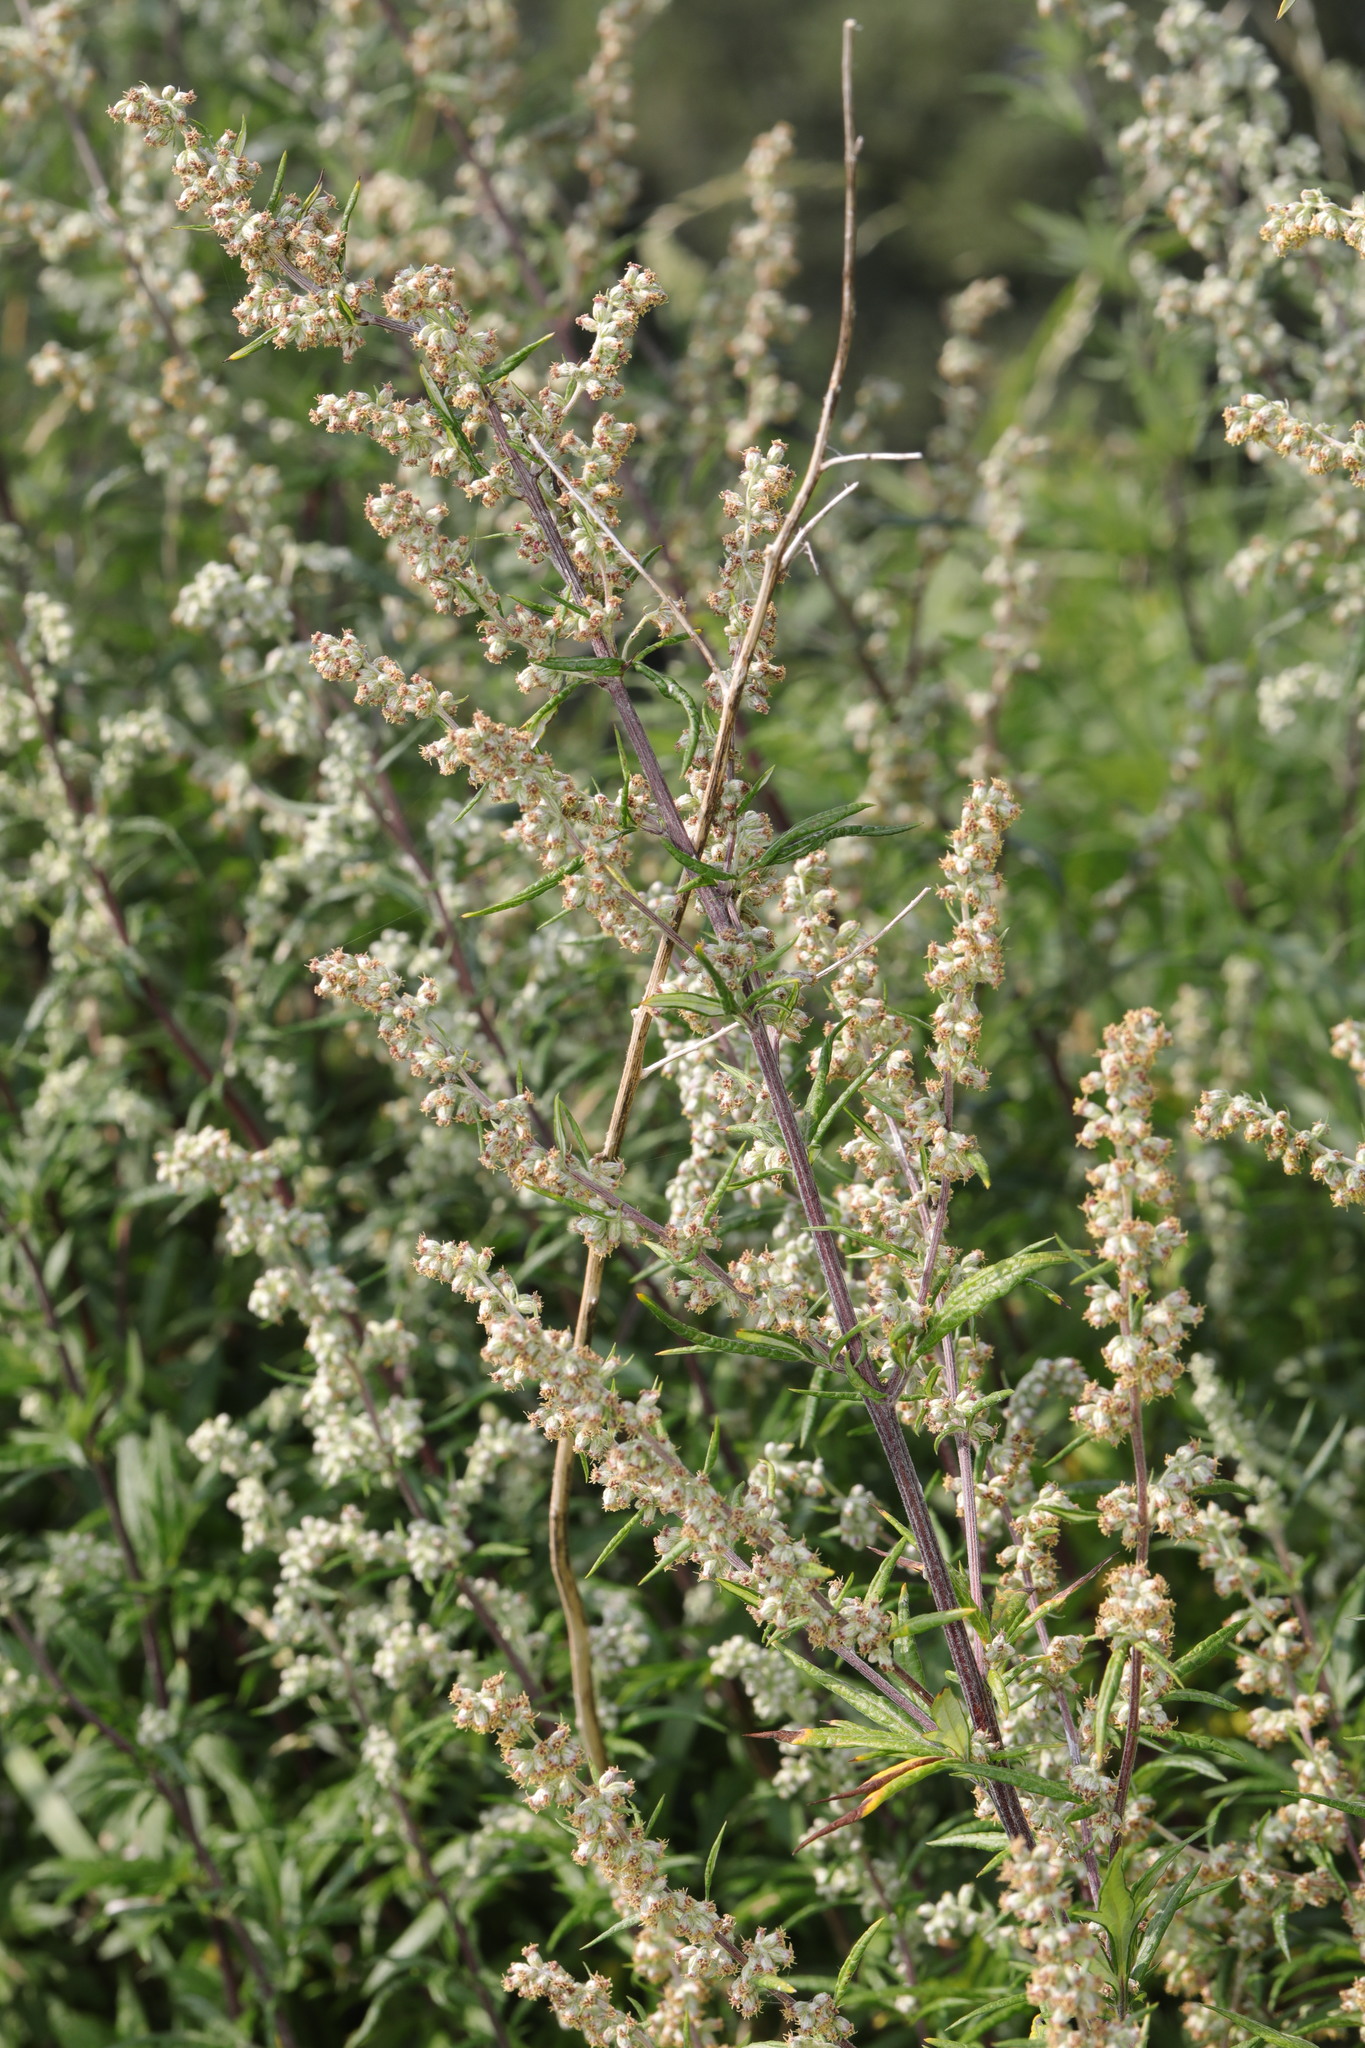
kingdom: Plantae
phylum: Tracheophyta
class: Magnoliopsida
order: Asterales
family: Asteraceae
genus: Artemisia
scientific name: Artemisia vulgaris
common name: Mugwort
